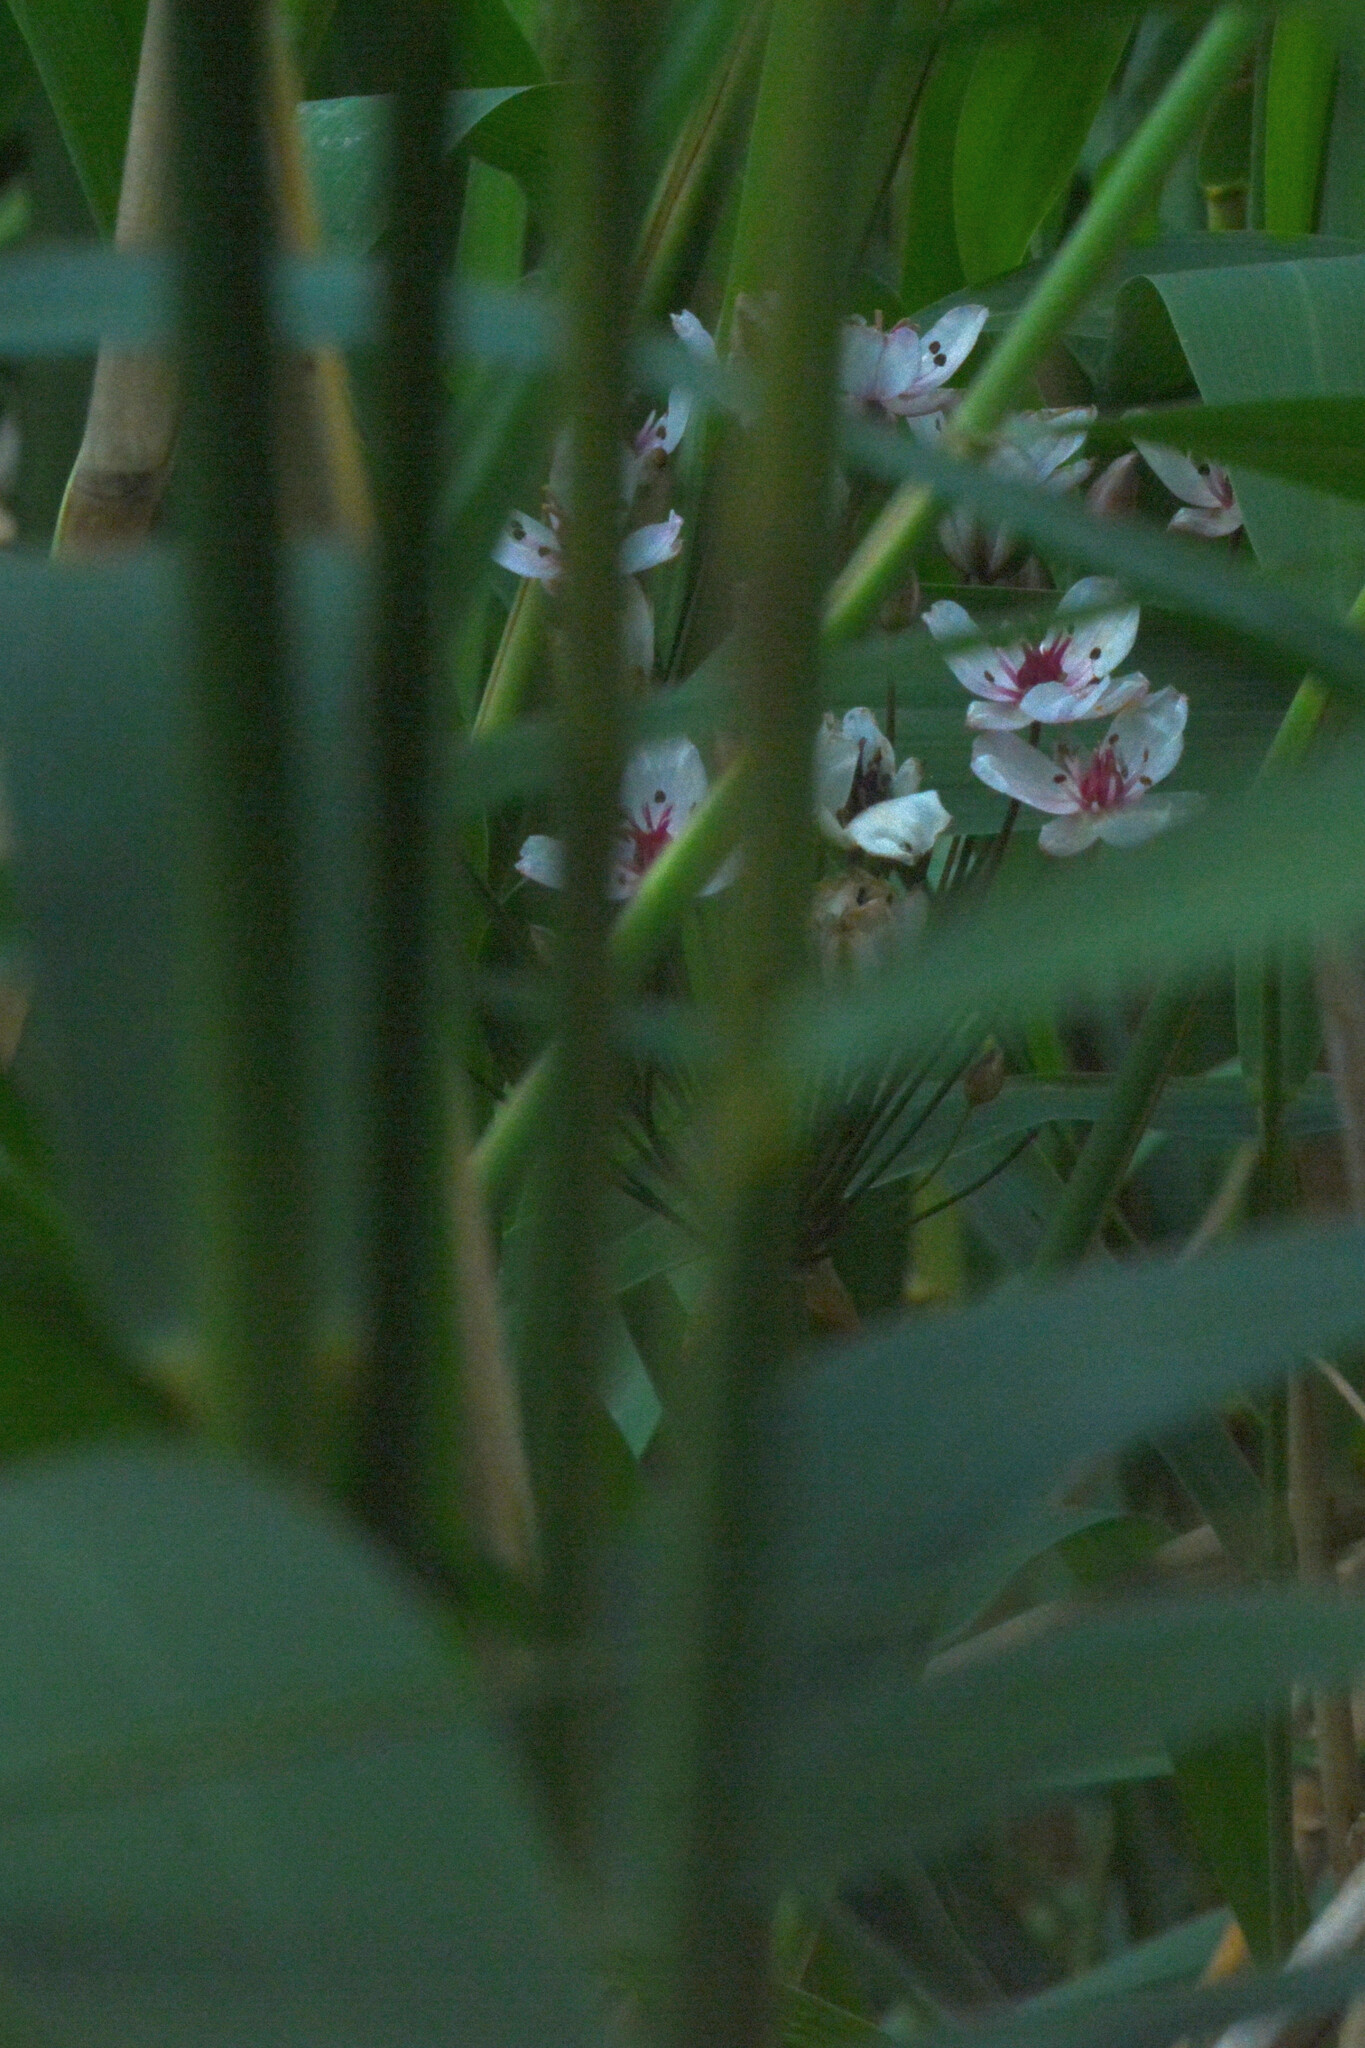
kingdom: Plantae
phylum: Tracheophyta
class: Liliopsida
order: Alismatales
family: Butomaceae
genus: Butomus
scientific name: Butomus umbellatus
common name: Flowering-rush
